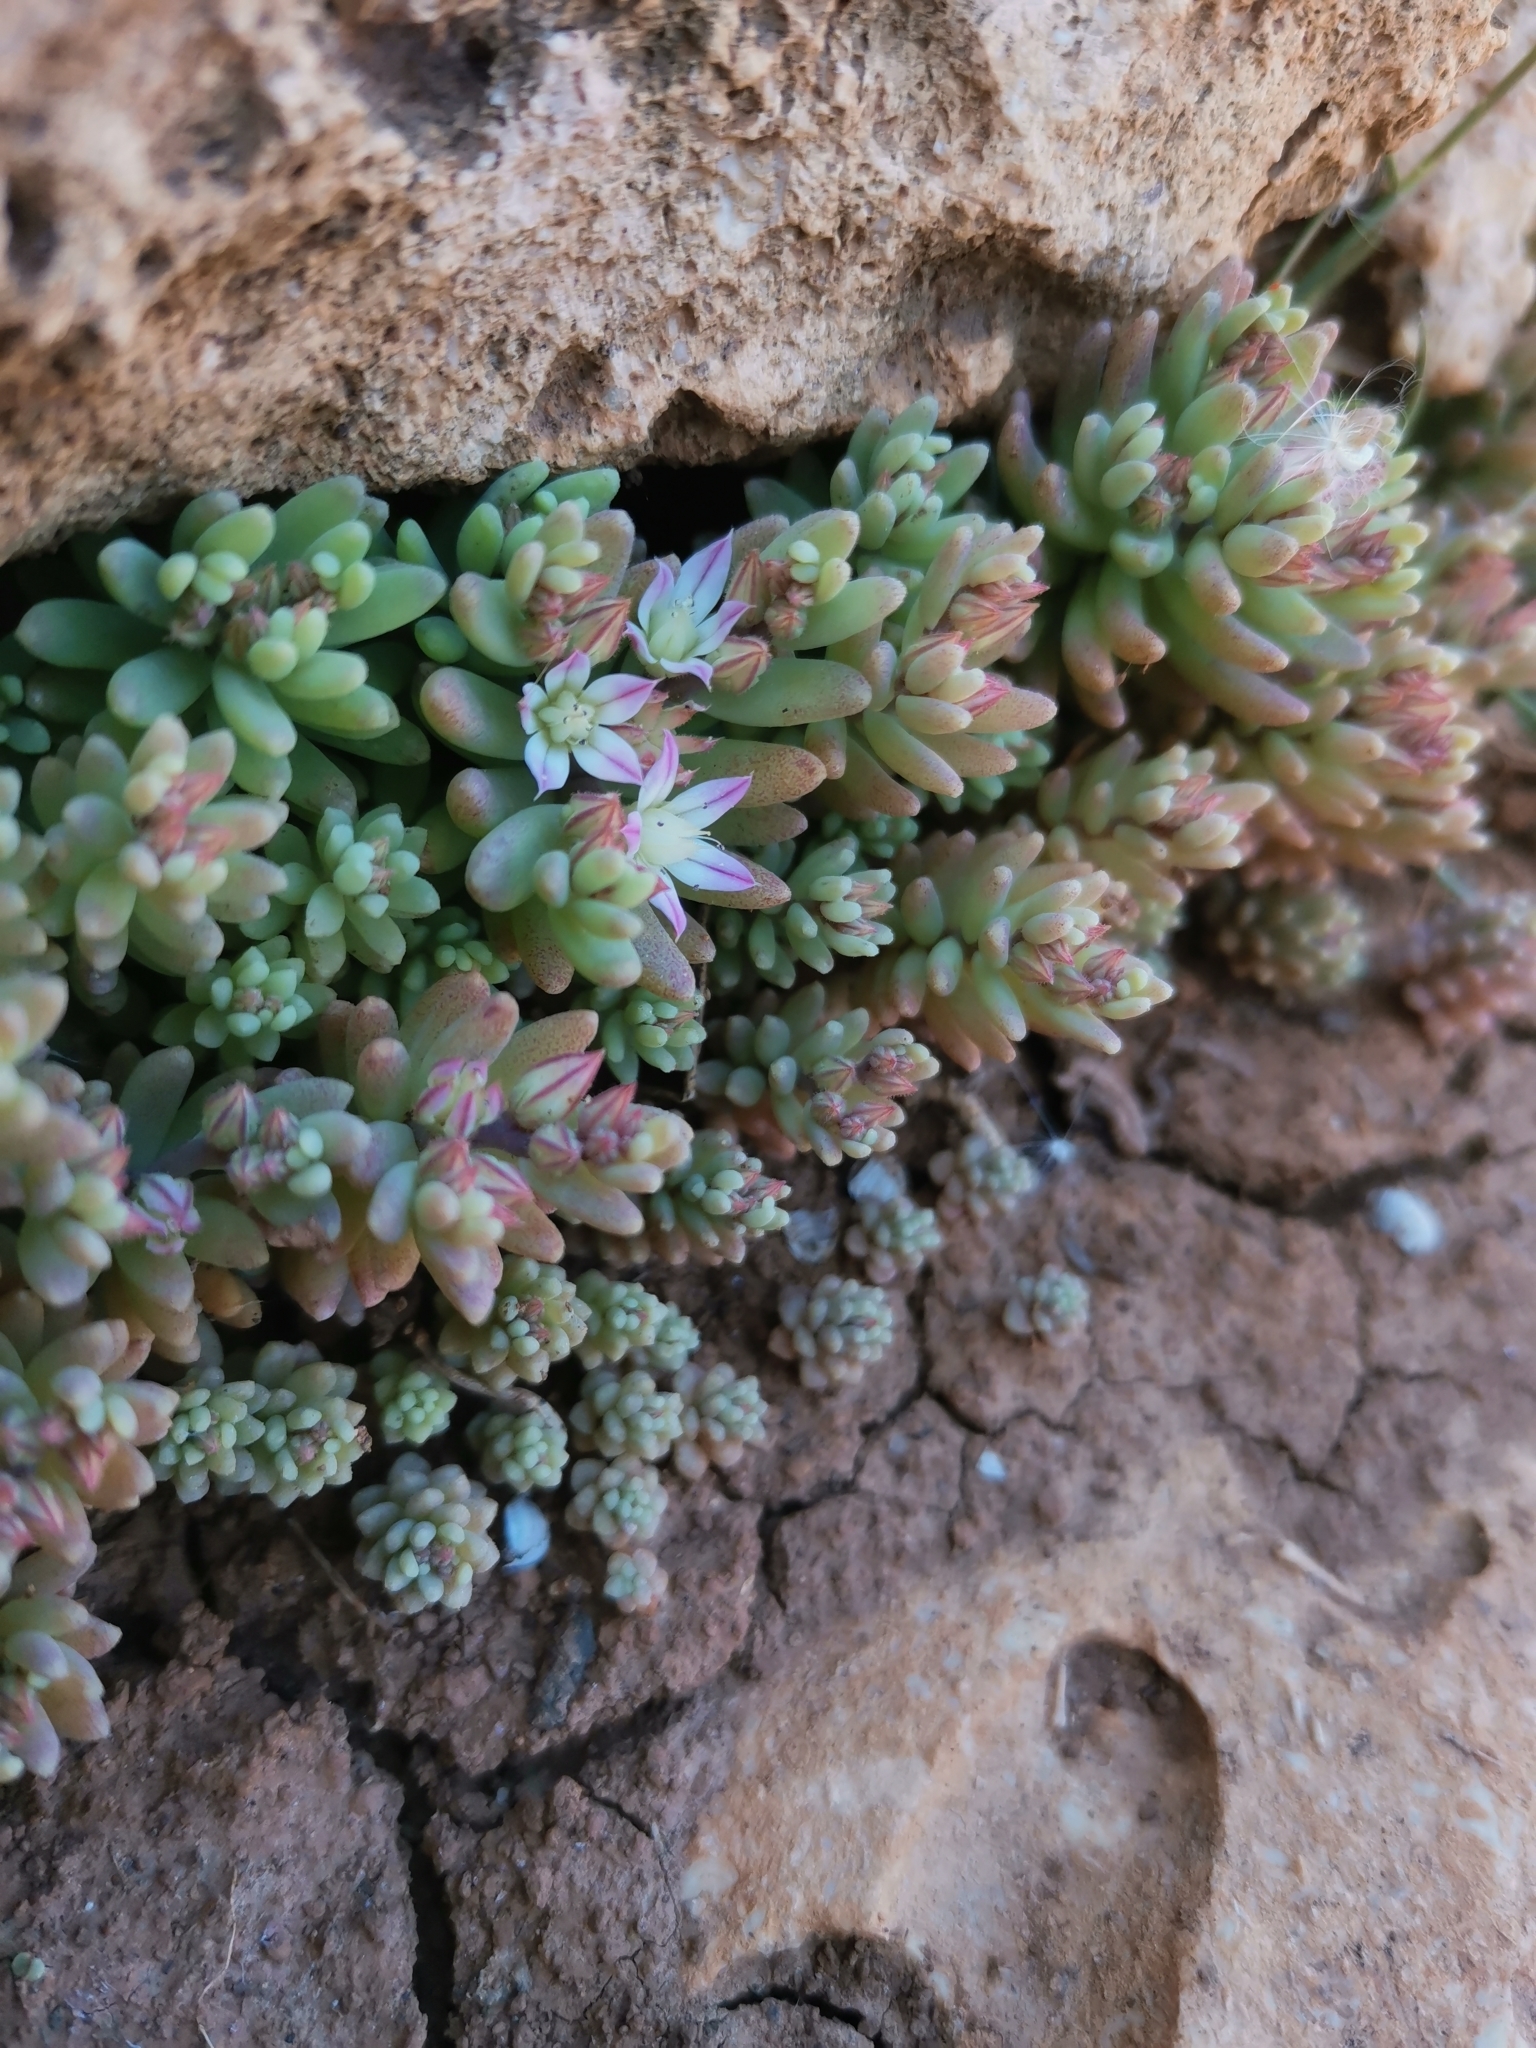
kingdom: Plantae
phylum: Tracheophyta
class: Magnoliopsida
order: Saxifragales
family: Crassulaceae
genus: Sedum
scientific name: Sedum rubens
